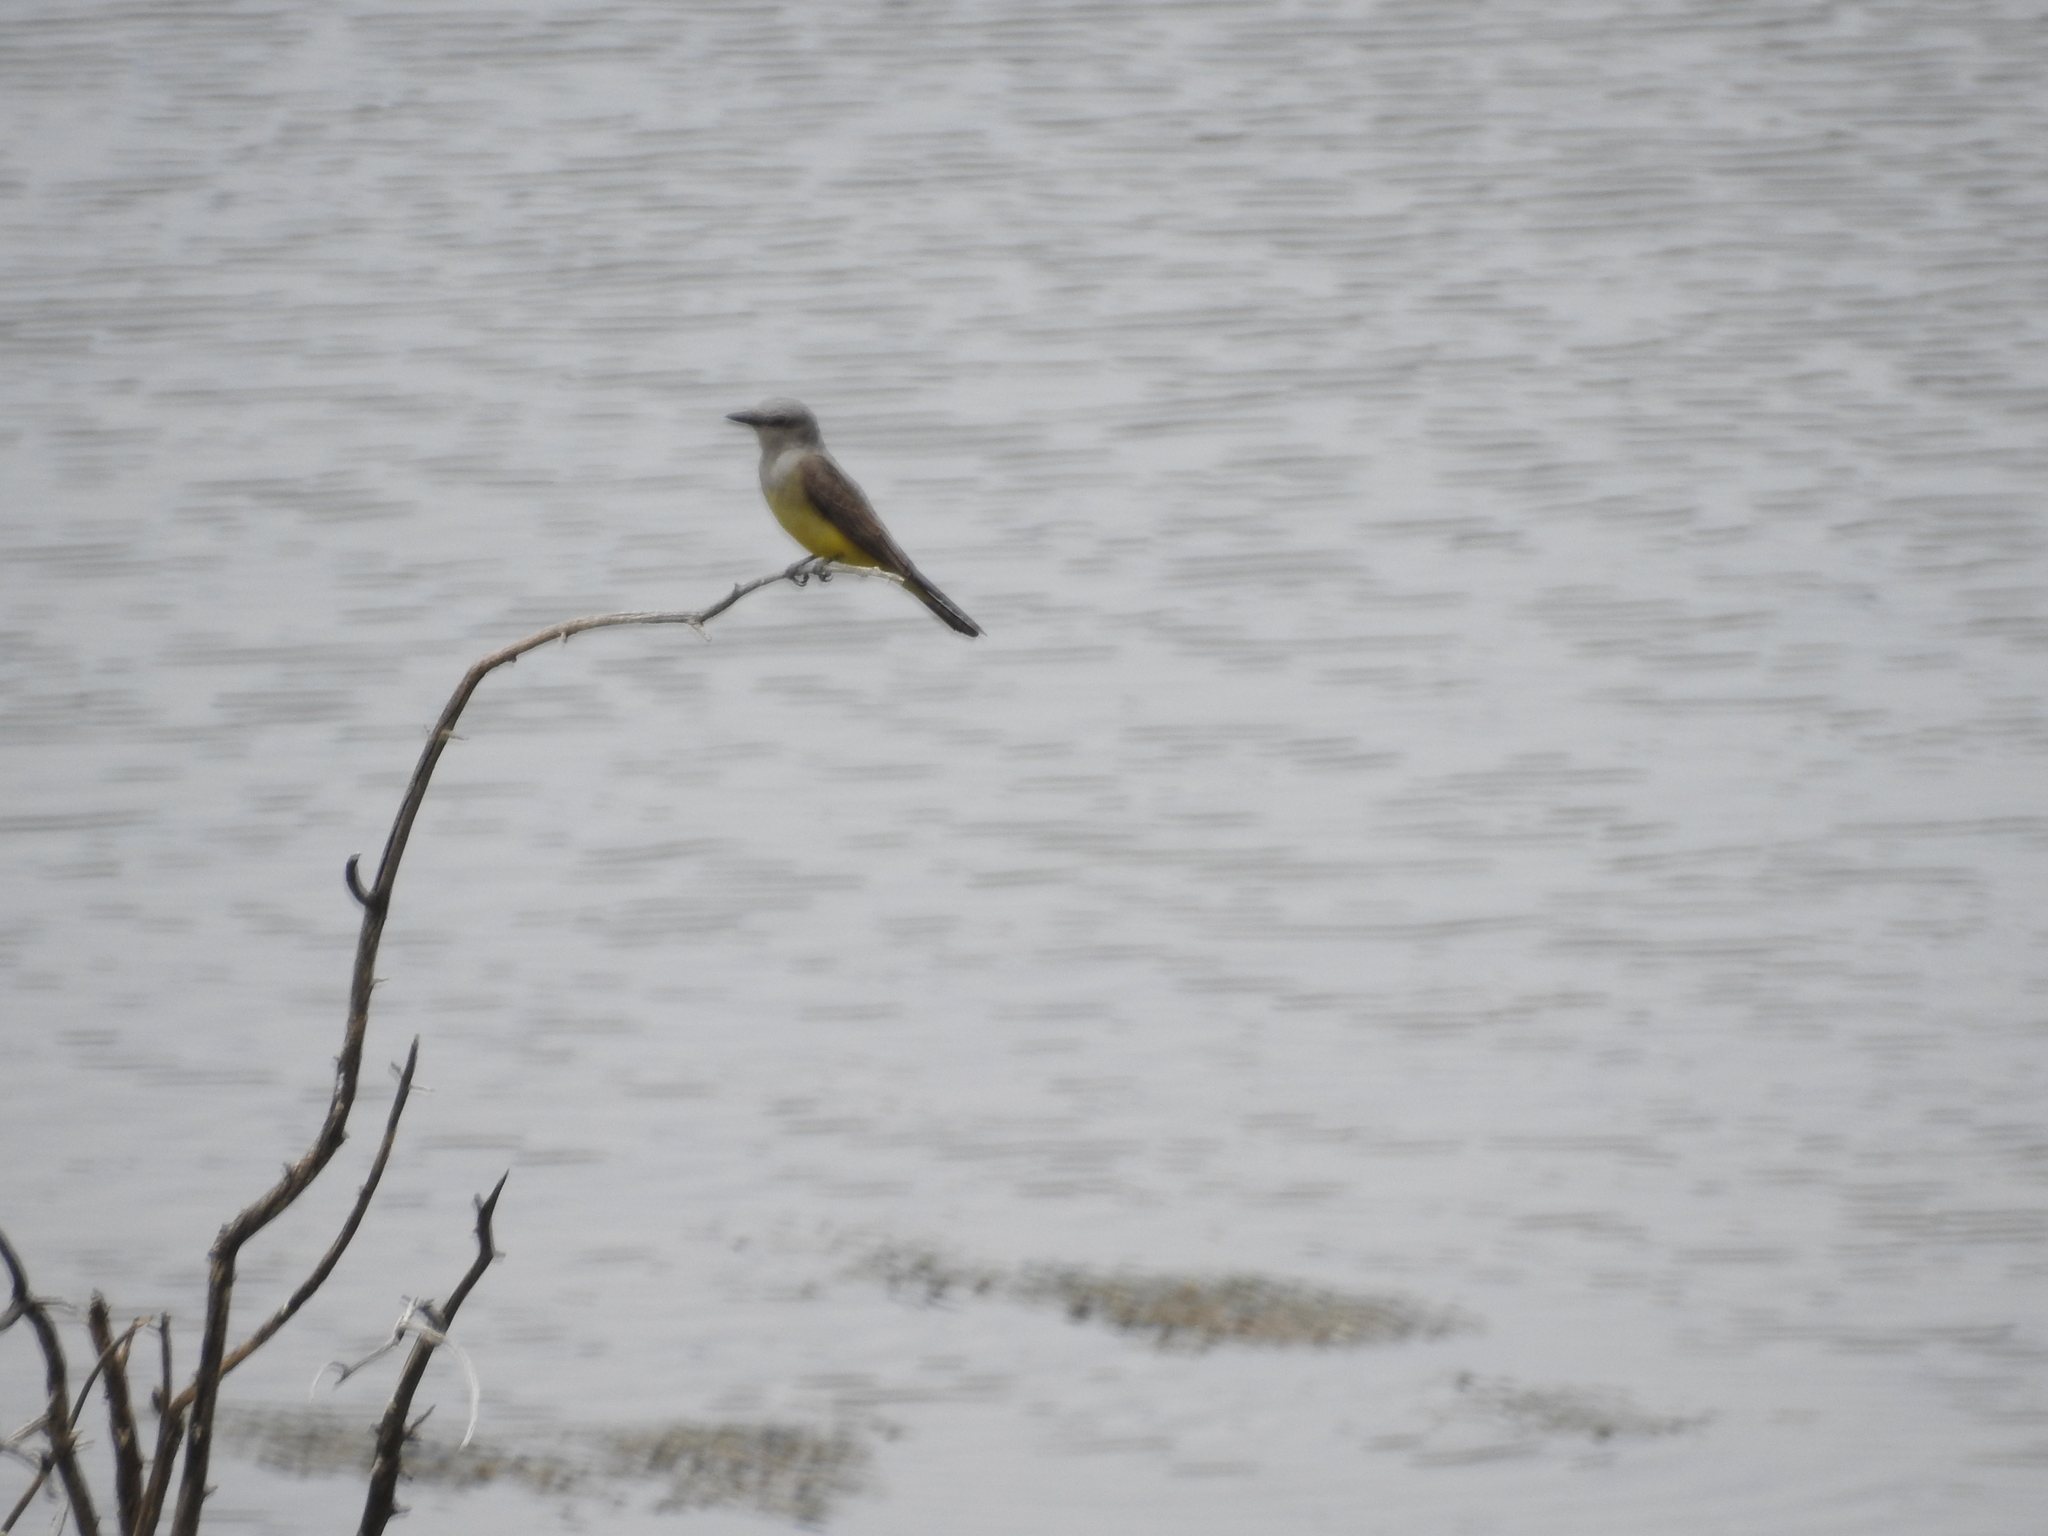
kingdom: Animalia
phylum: Chordata
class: Aves
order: Passeriformes
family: Tyrannidae
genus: Tyrannus
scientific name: Tyrannus verticalis
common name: Western kingbird
